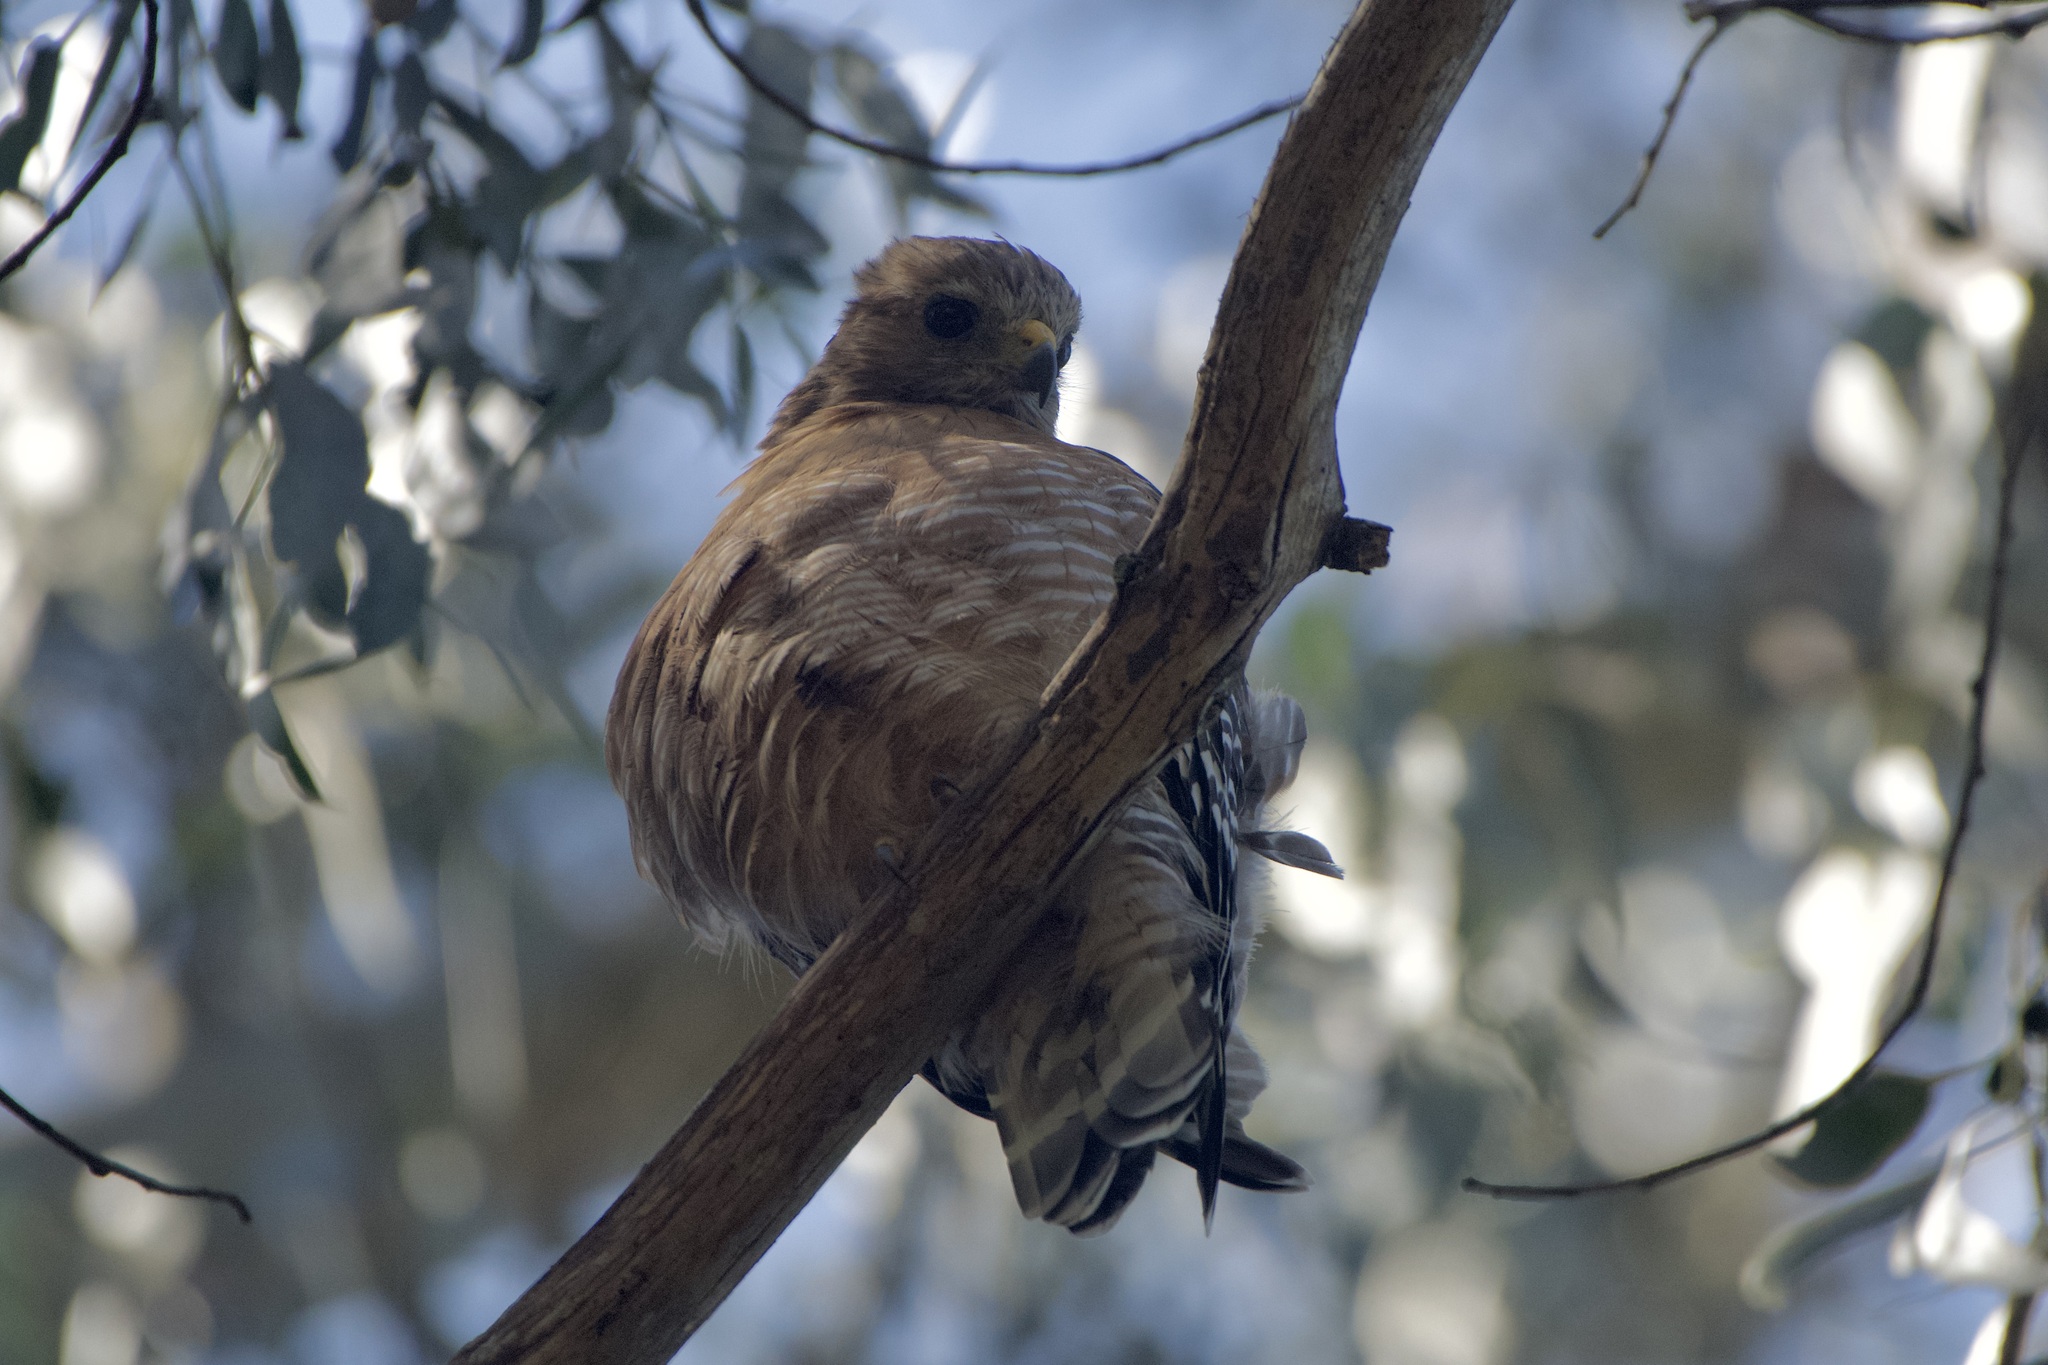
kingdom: Animalia
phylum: Chordata
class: Aves
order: Accipitriformes
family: Accipitridae
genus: Buteo
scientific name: Buteo lineatus
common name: Red-shouldered hawk
